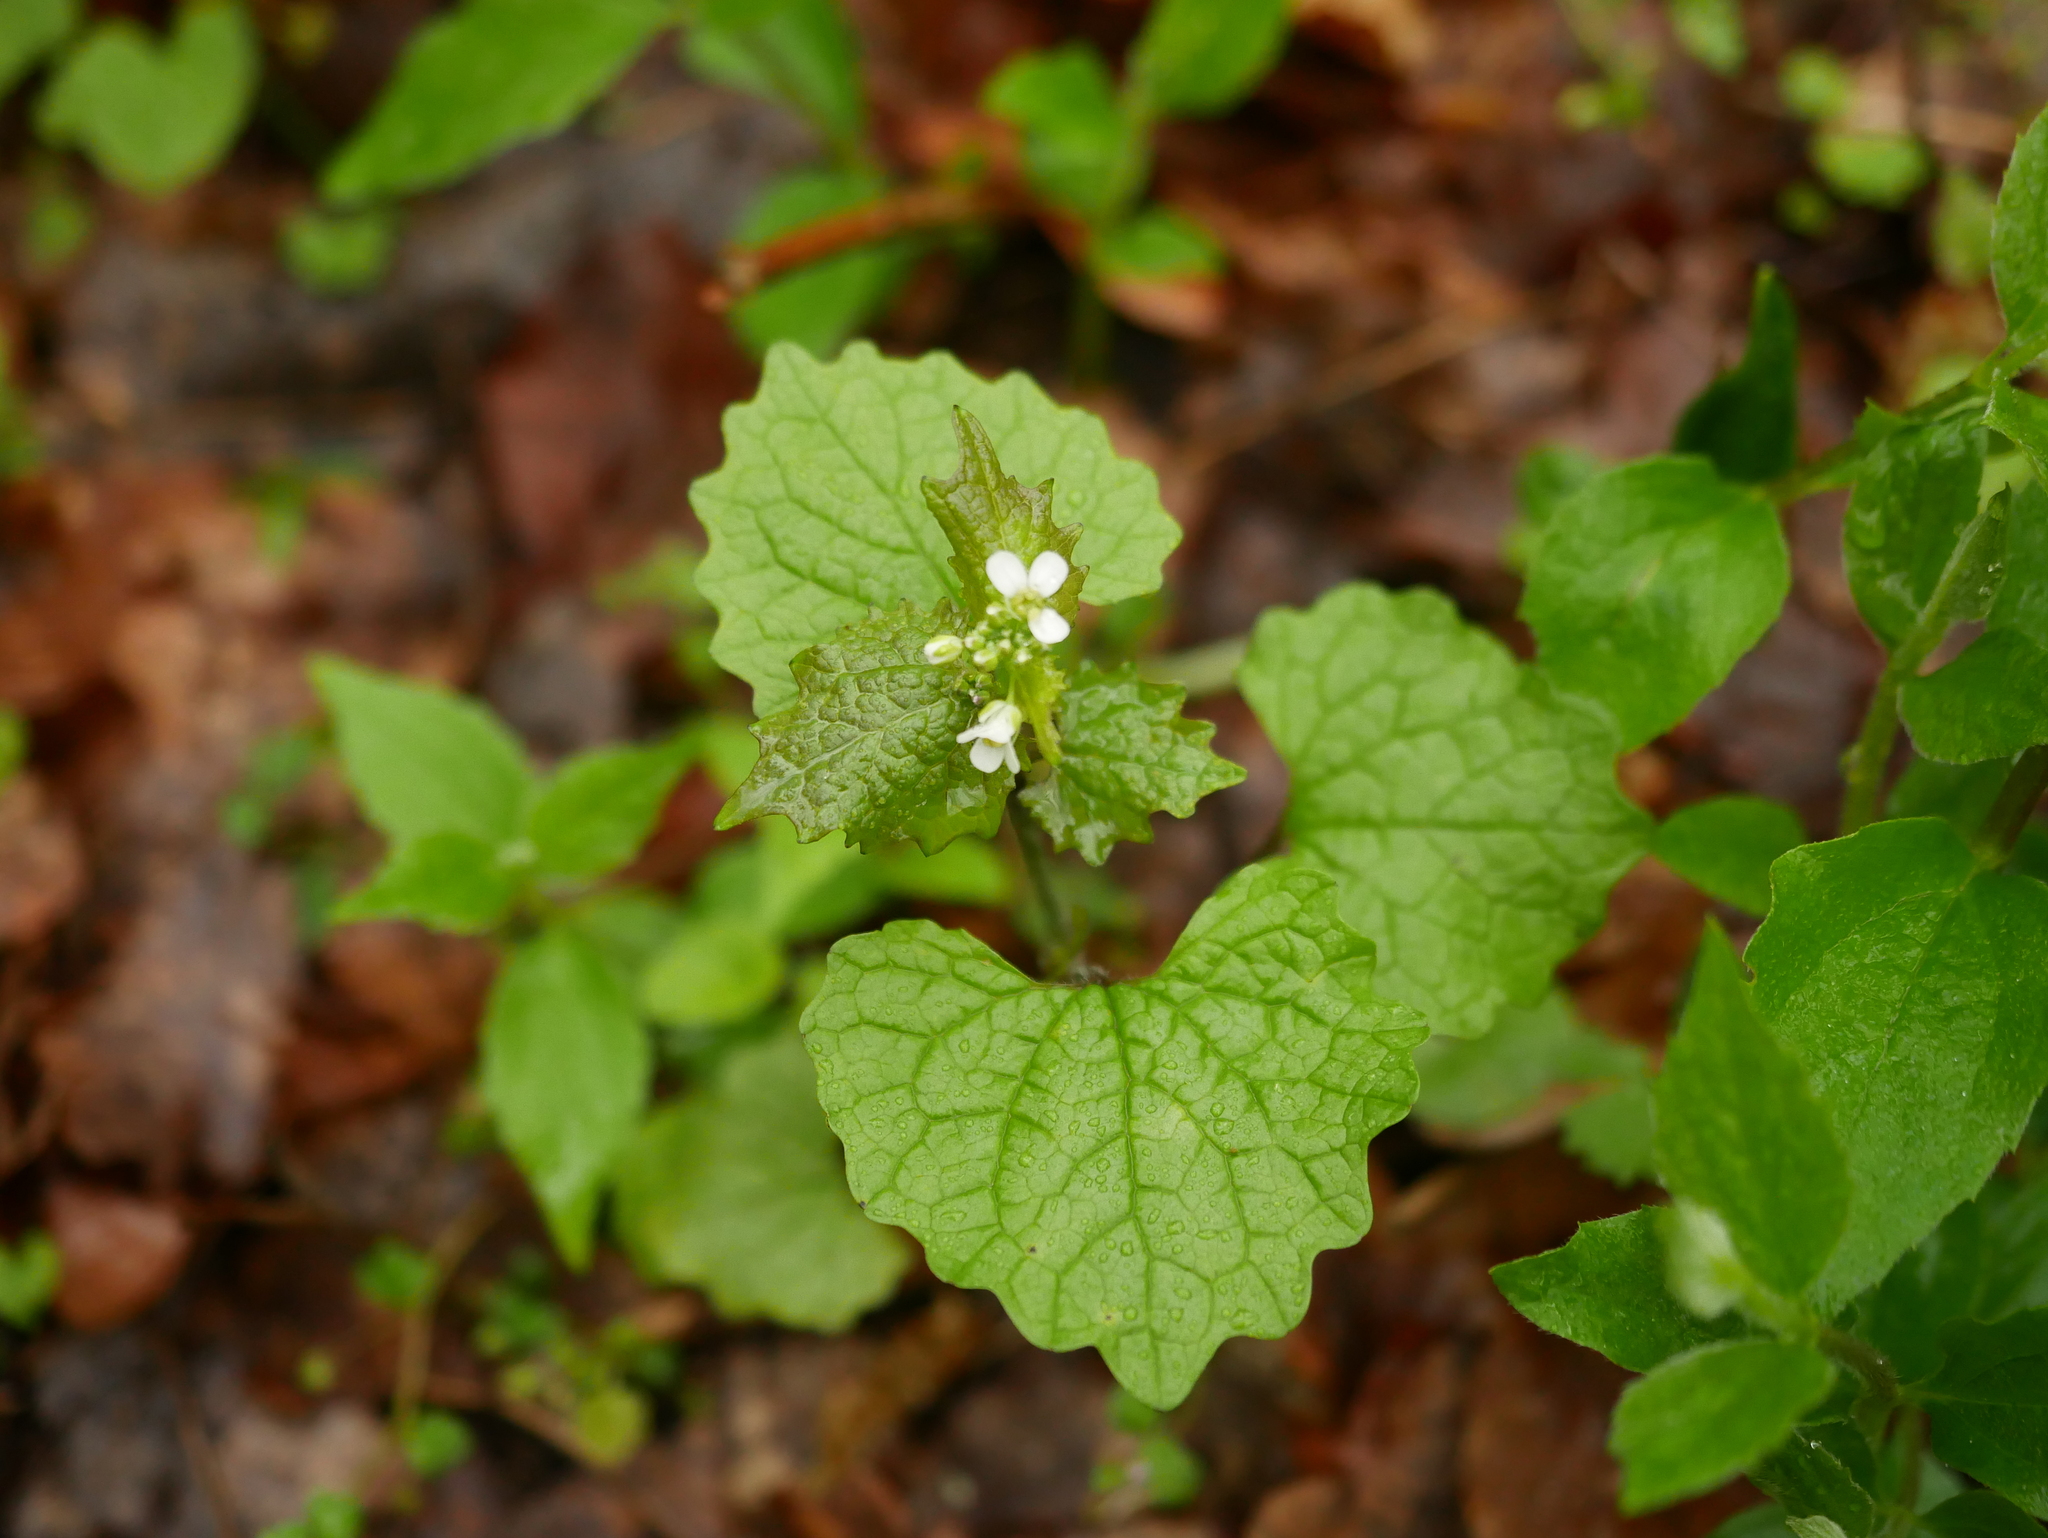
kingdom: Plantae
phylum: Tracheophyta
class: Magnoliopsida
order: Brassicales
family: Brassicaceae
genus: Alliaria
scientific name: Alliaria petiolata
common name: Garlic mustard
